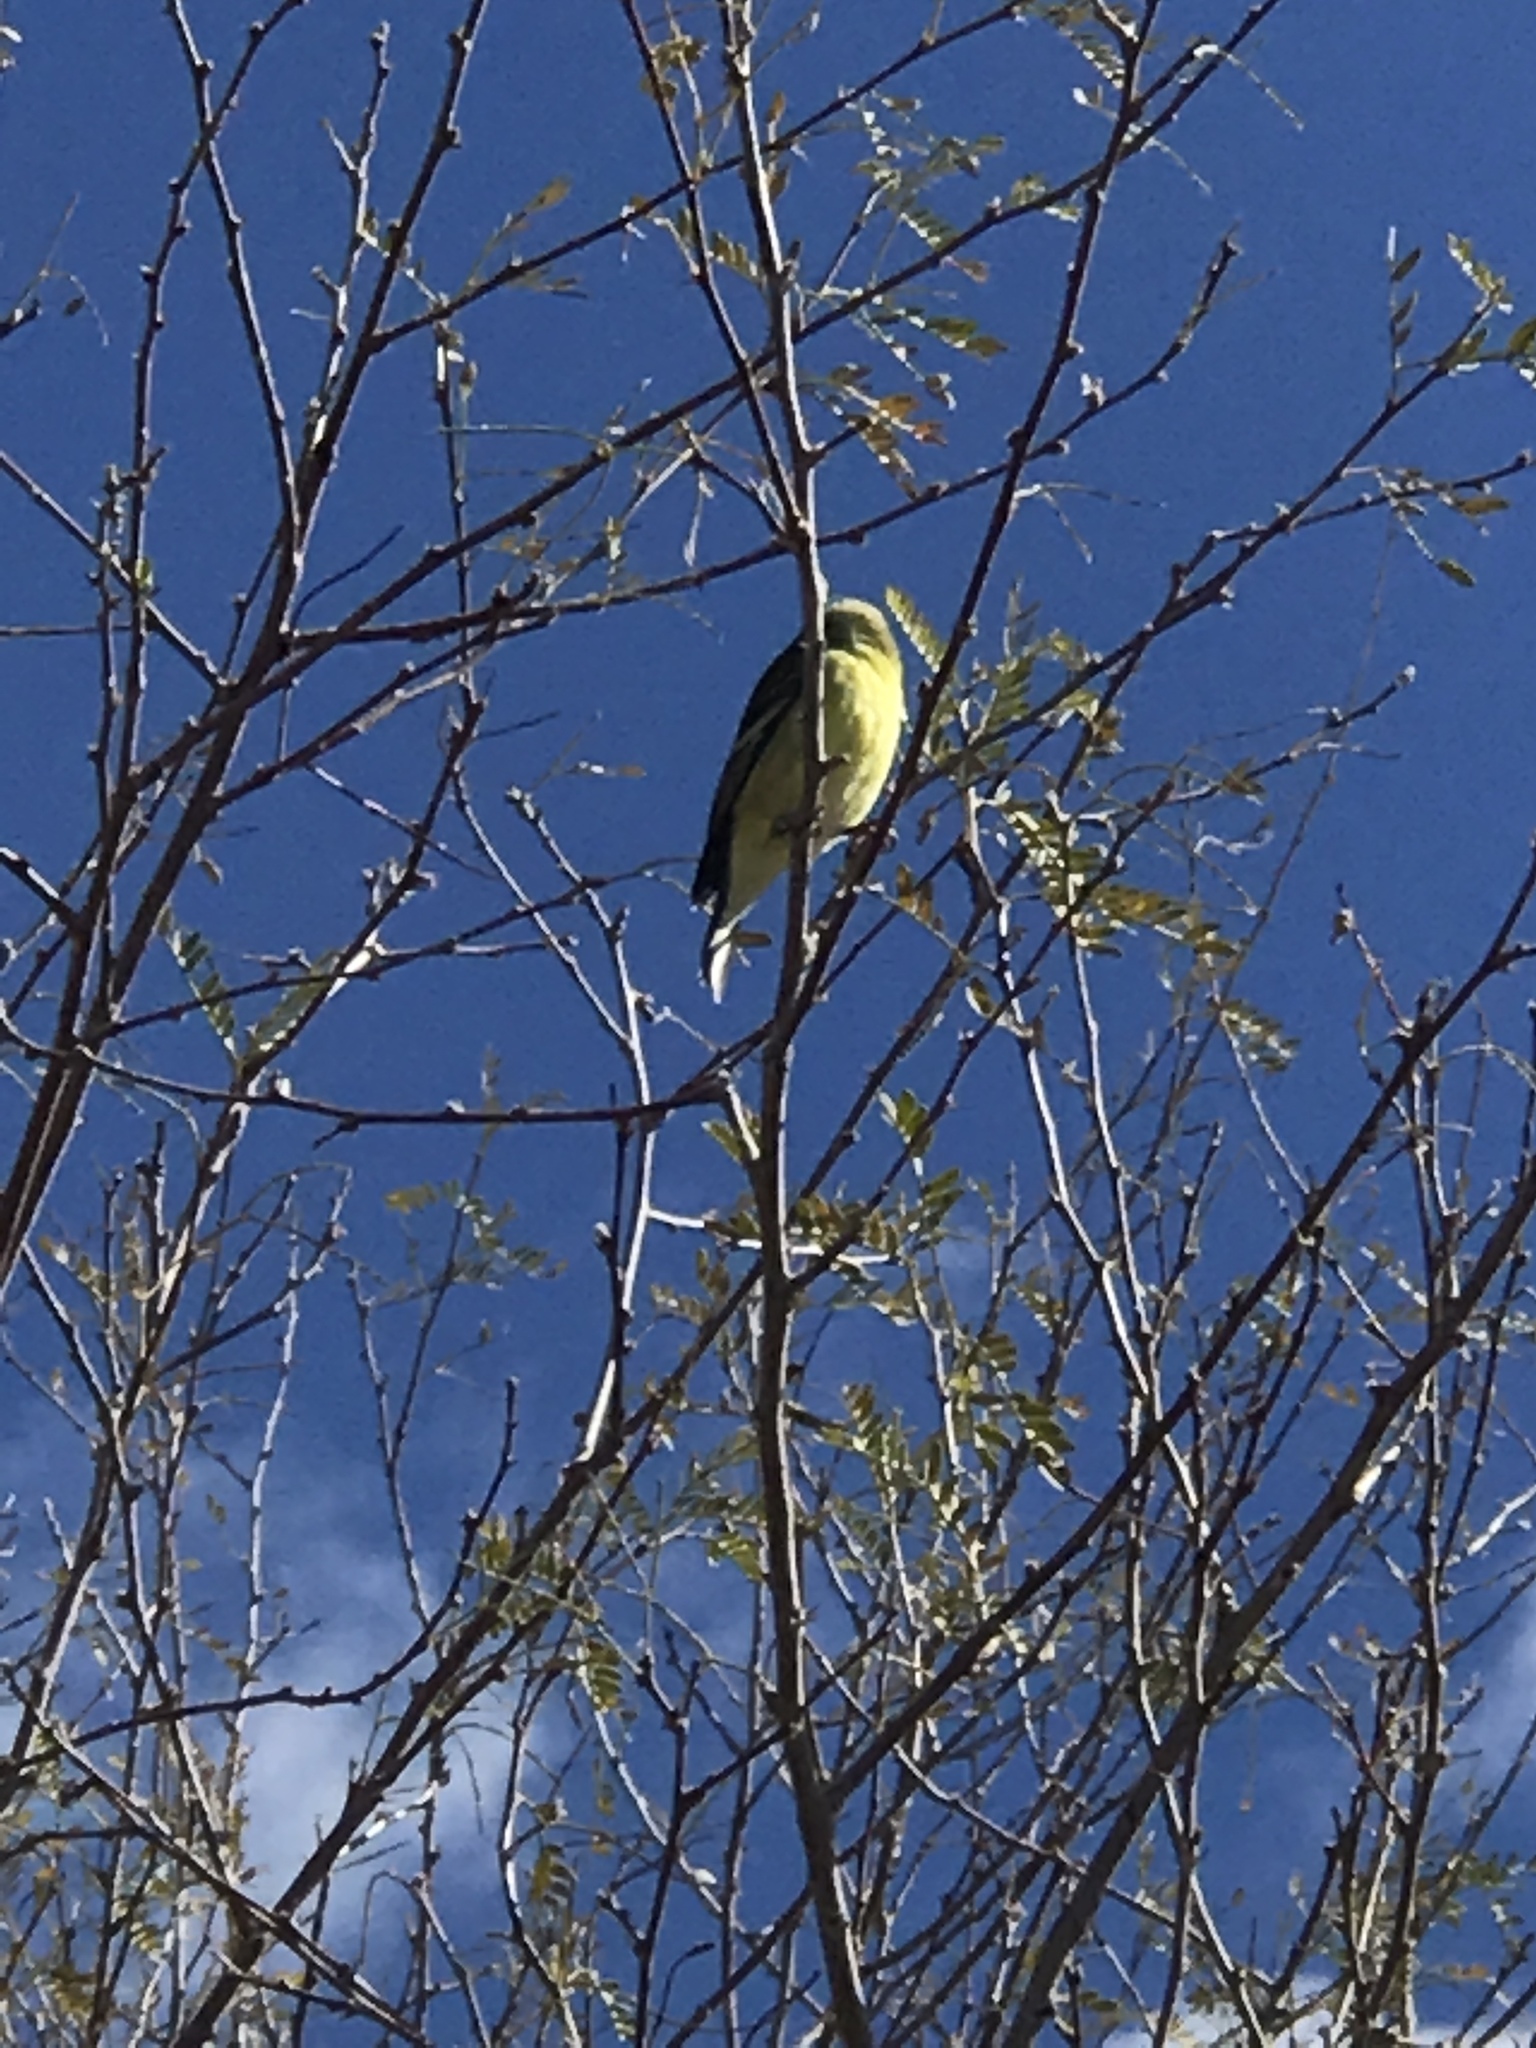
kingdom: Animalia
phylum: Chordata
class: Aves
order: Passeriformes
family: Fringillidae
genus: Spinus
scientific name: Spinus psaltria
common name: Lesser goldfinch
